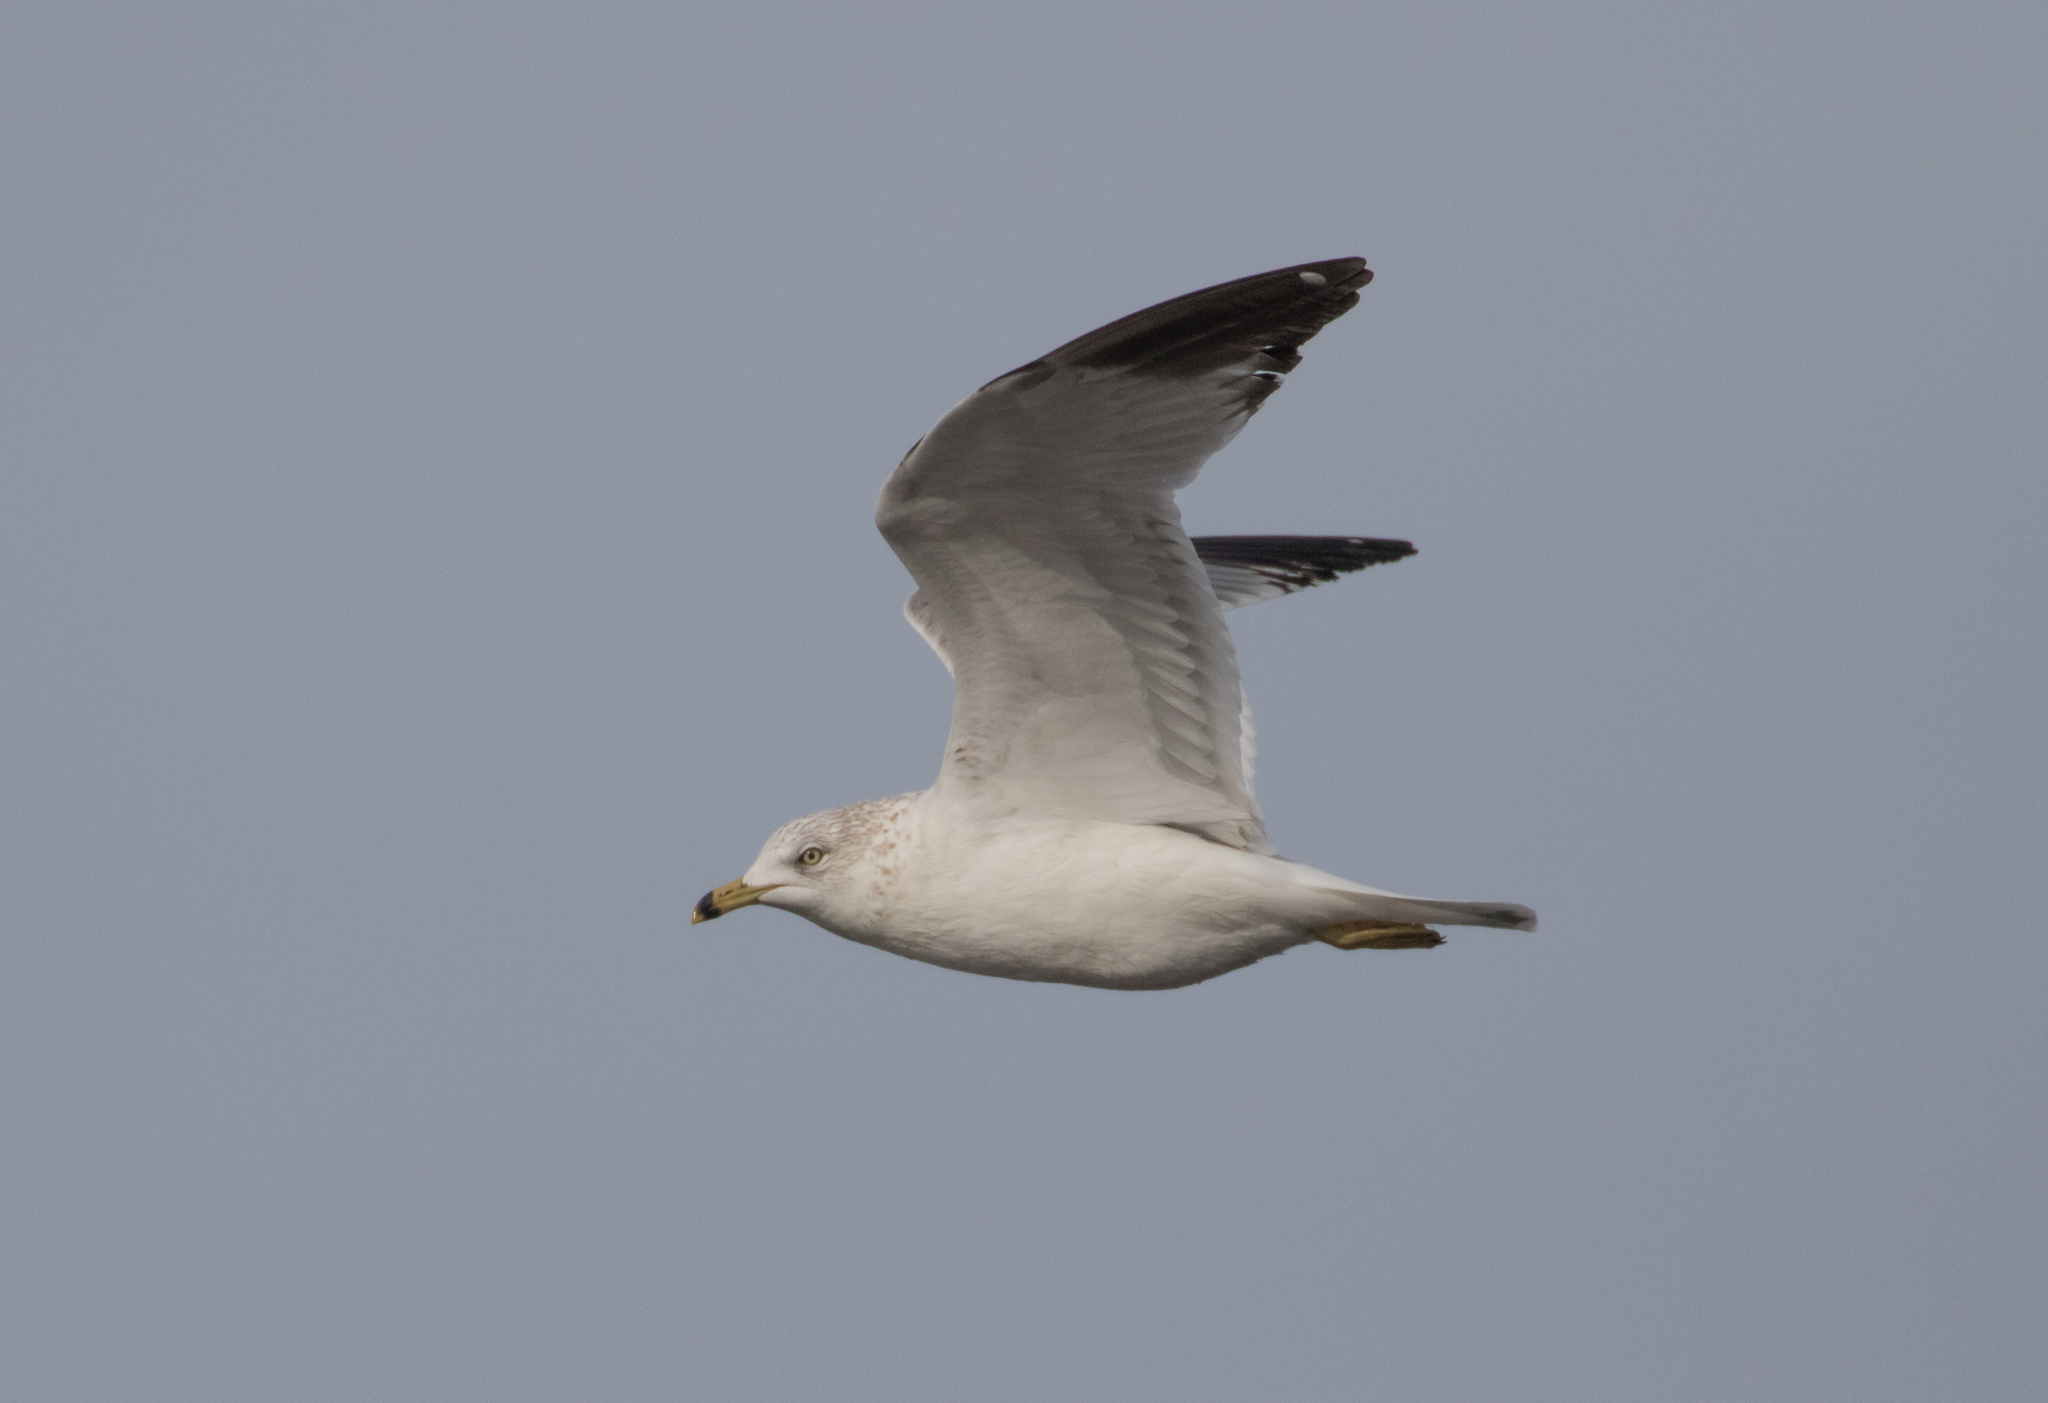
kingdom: Animalia
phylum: Chordata
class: Aves
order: Charadriiformes
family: Laridae
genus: Larus
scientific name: Larus delawarensis
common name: Ring-billed gull
